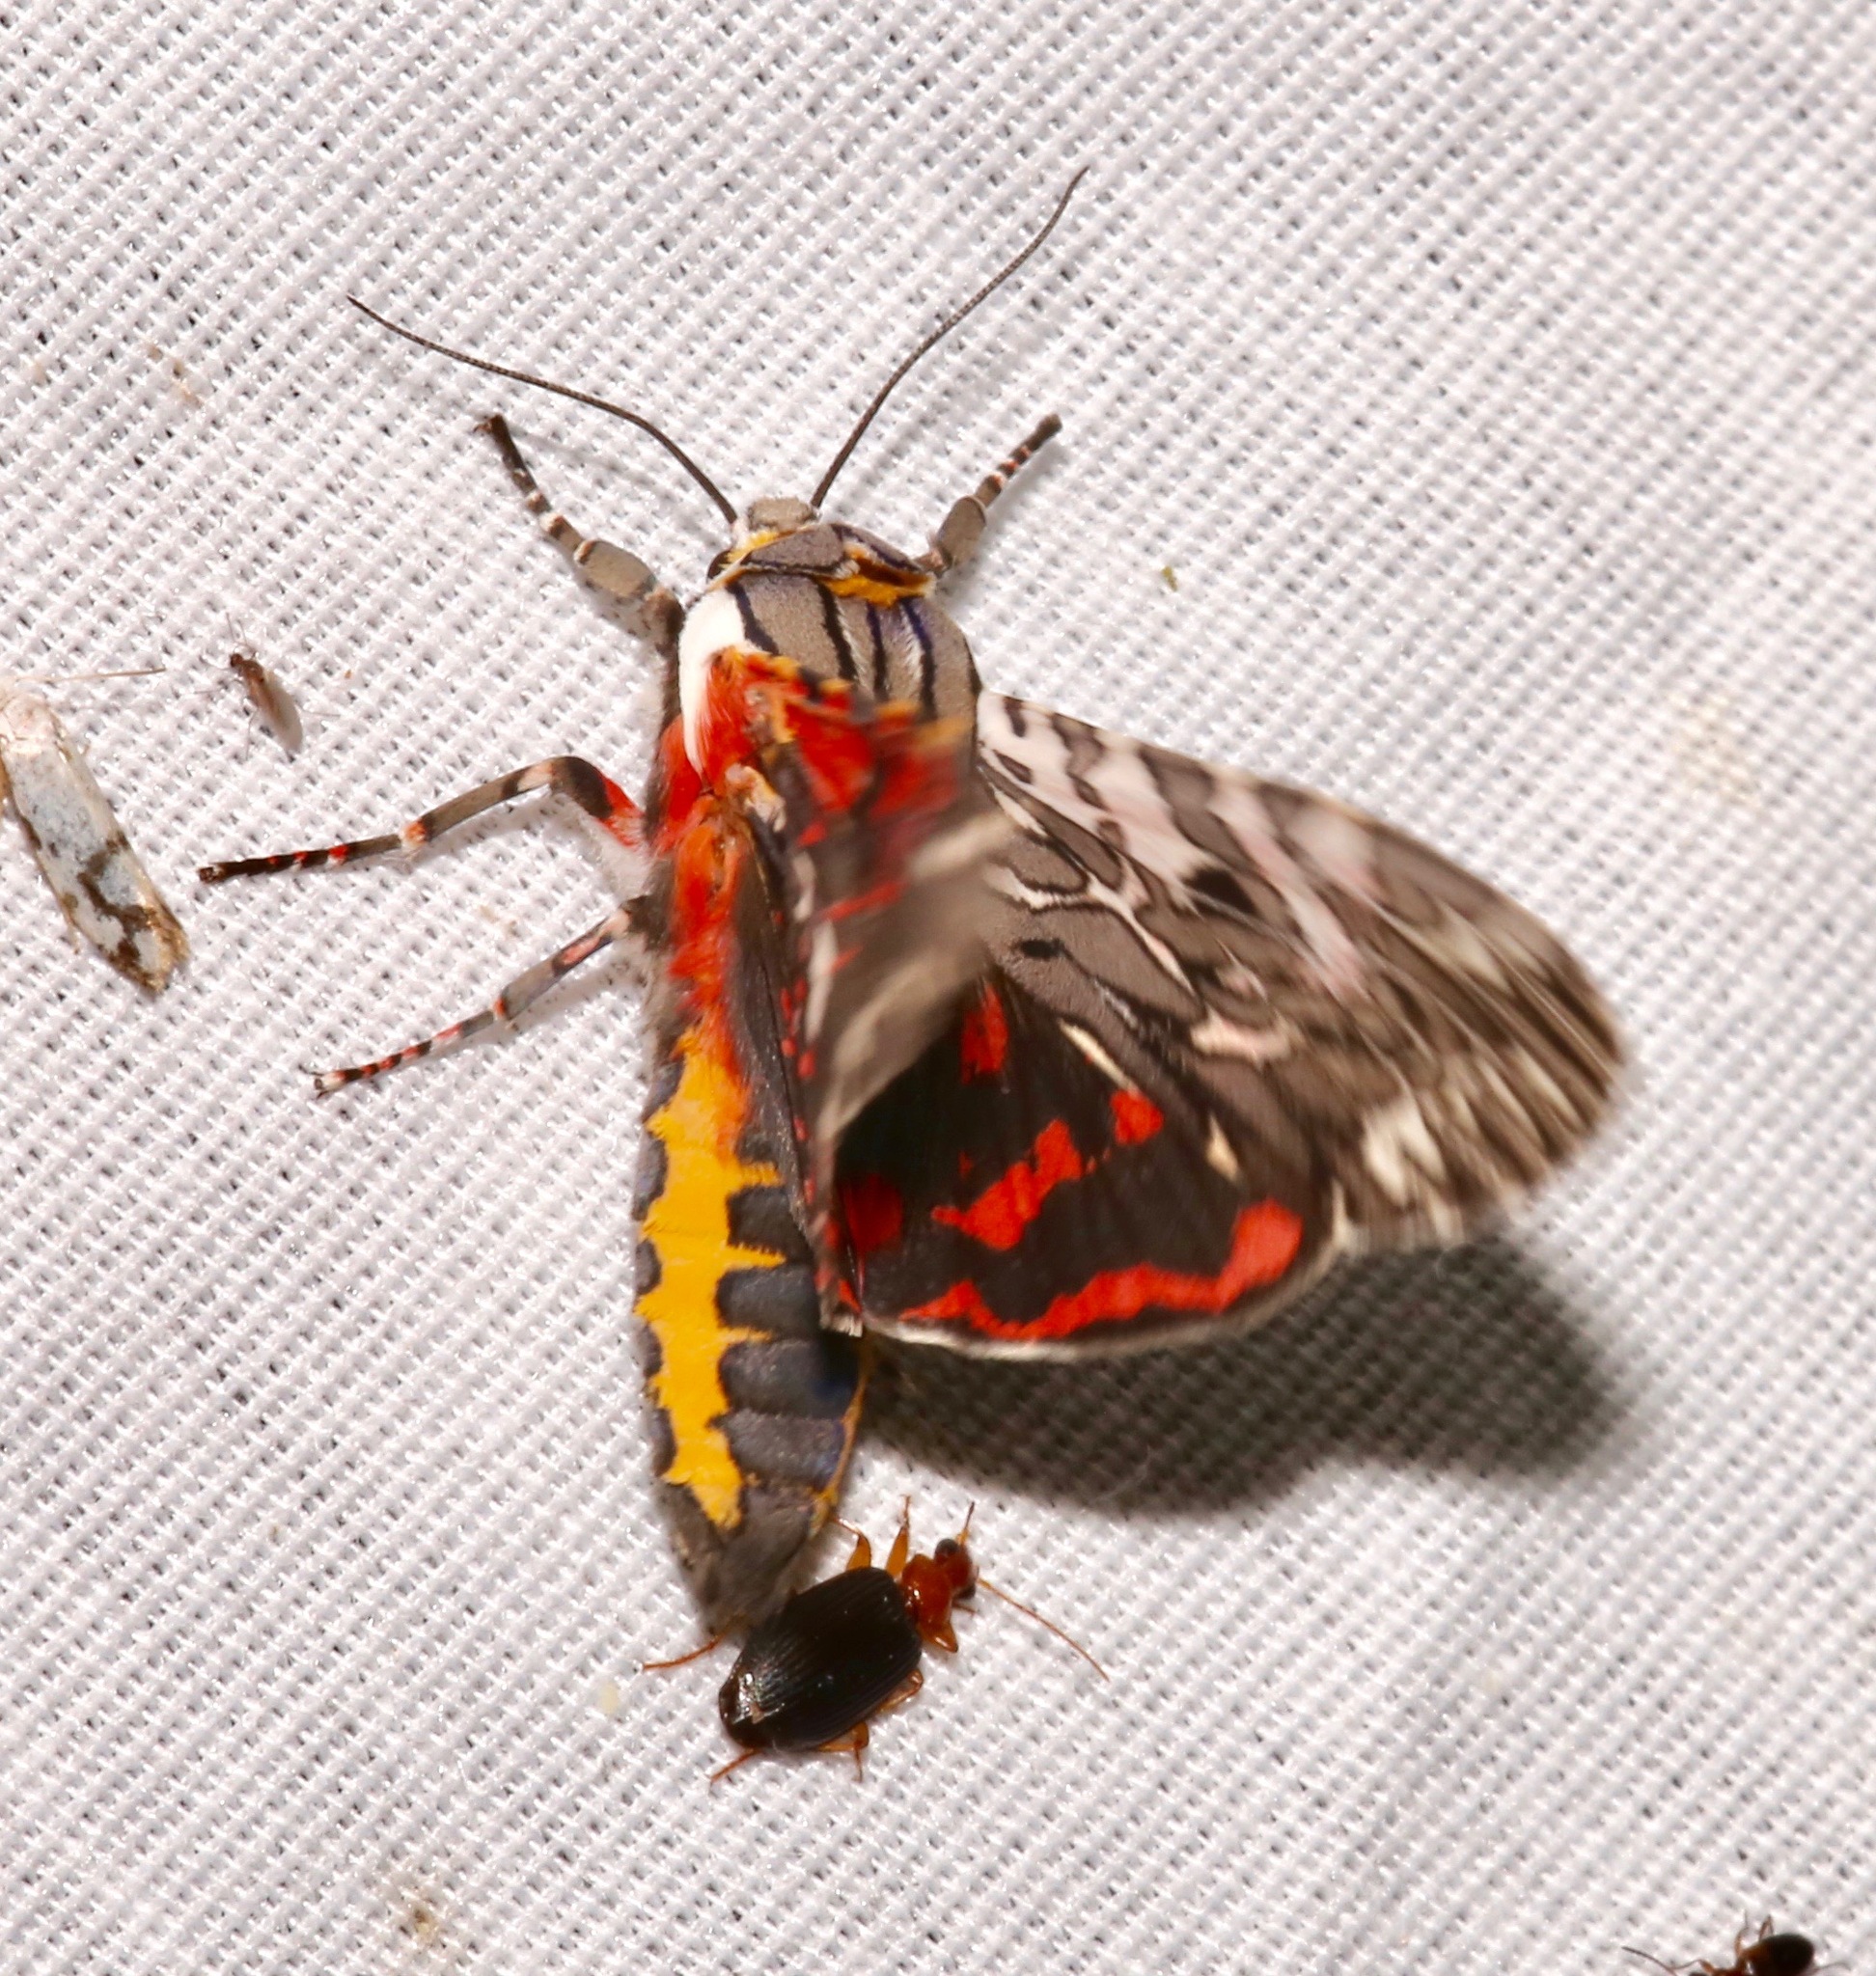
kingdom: Animalia
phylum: Arthropoda
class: Insecta
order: Lepidoptera
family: Erebidae
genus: Arachnis
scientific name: Arachnis aulaea
